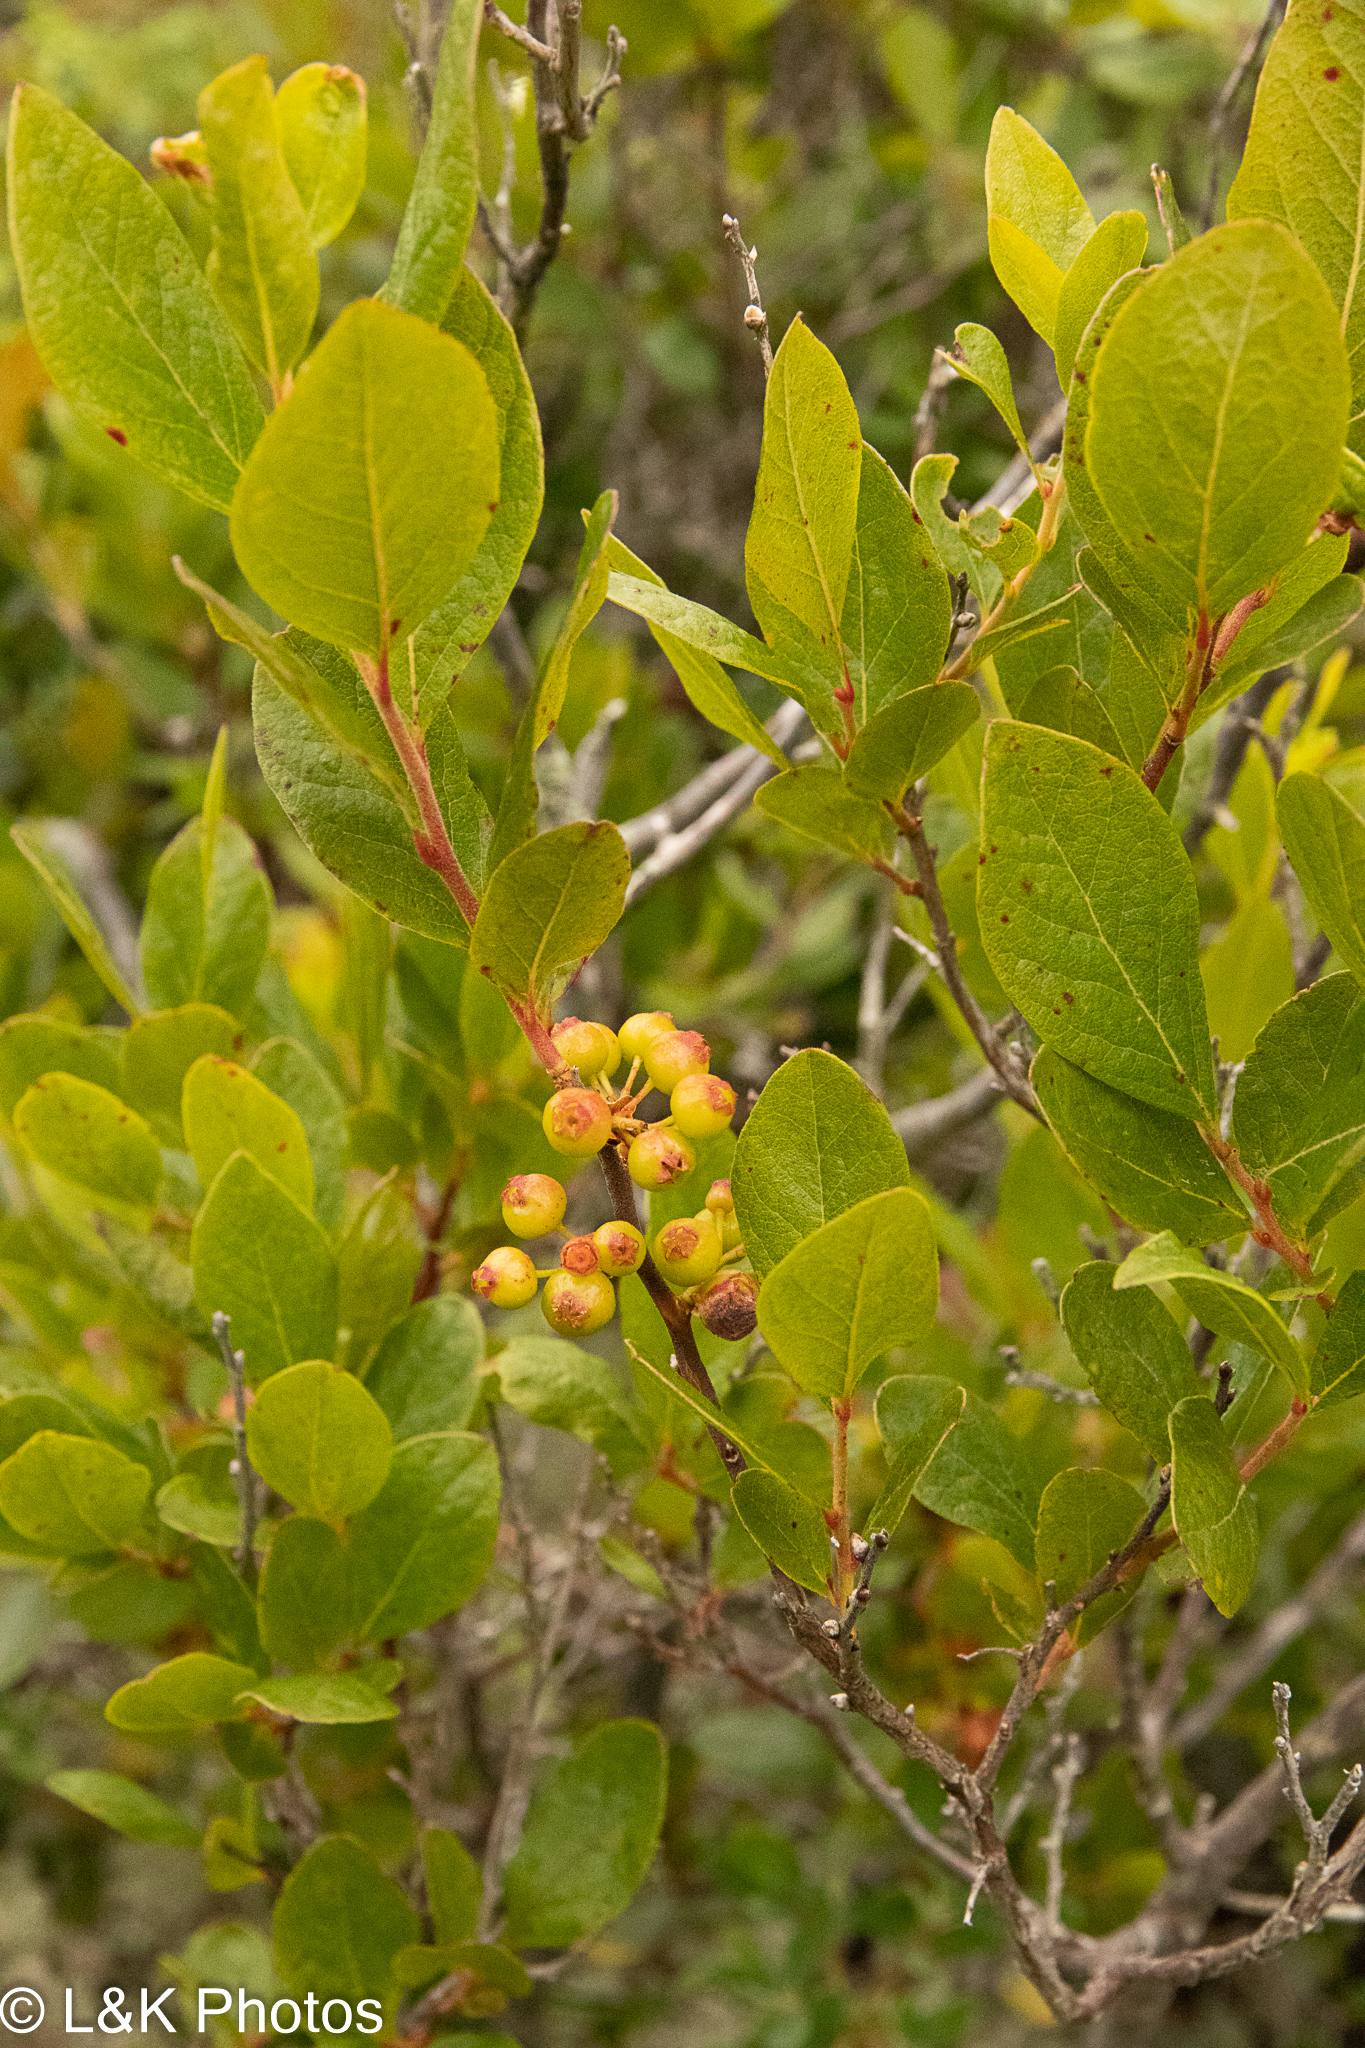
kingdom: Plantae
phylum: Tracheophyta
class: Magnoliopsida
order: Ericales
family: Ericaceae
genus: Gaylussacia
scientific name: Gaylussacia baccata
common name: Black huckleberry
